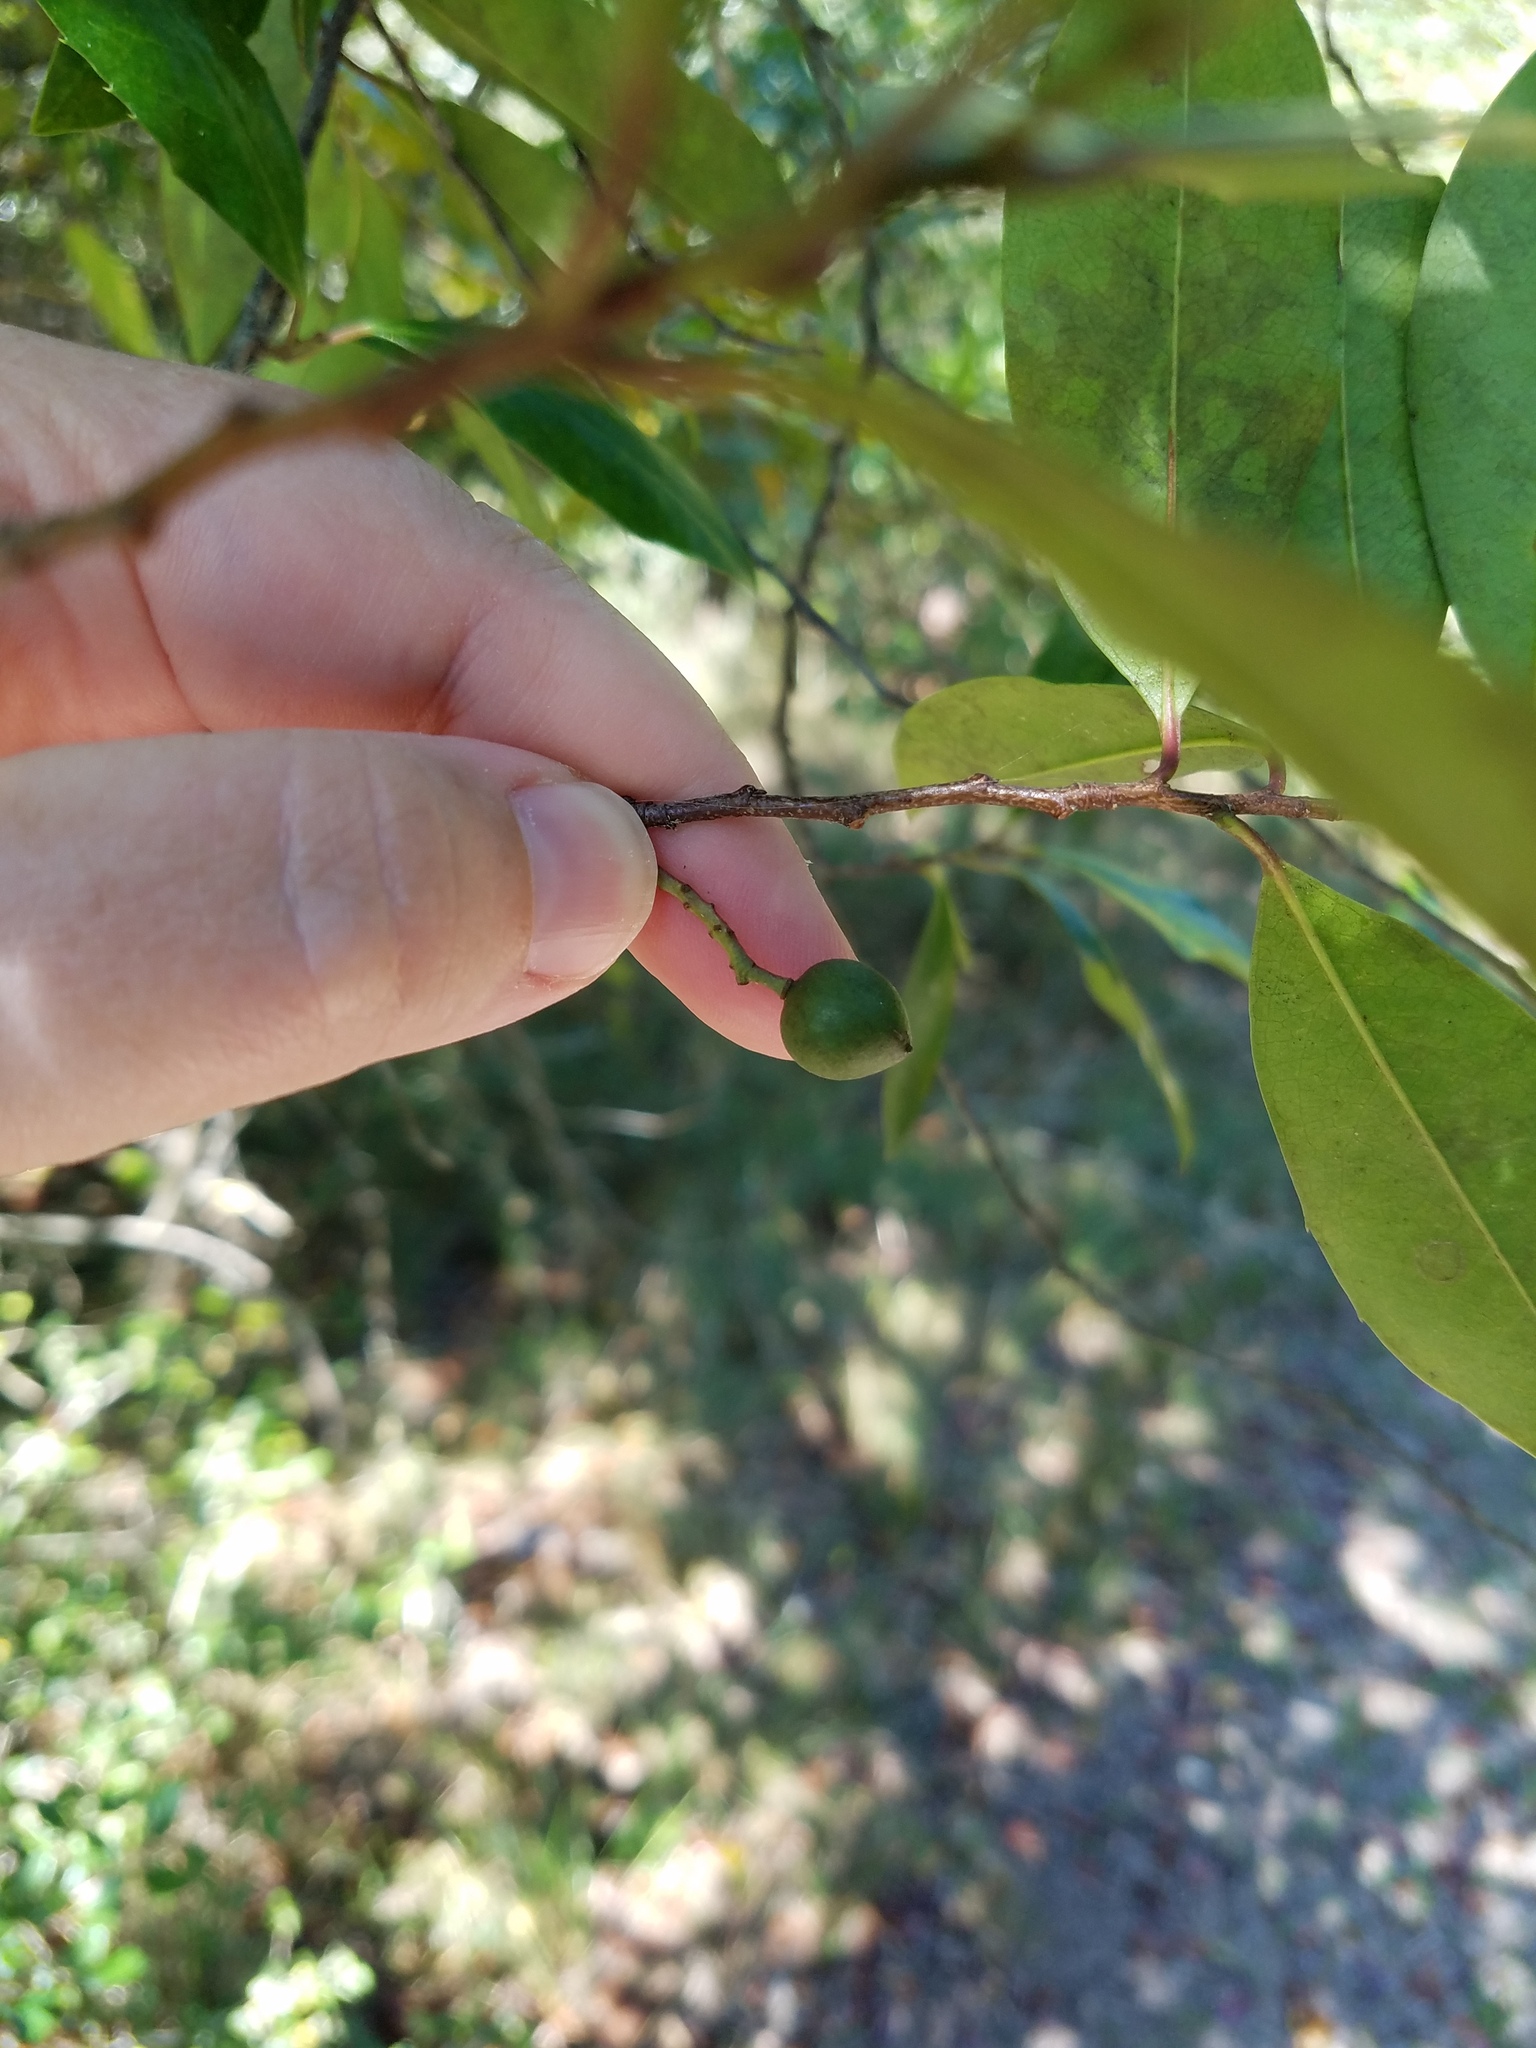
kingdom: Plantae
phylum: Tracheophyta
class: Magnoliopsida
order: Rosales
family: Rosaceae
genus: Prunus
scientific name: Prunus caroliniana
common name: Carolina laurel cherry
